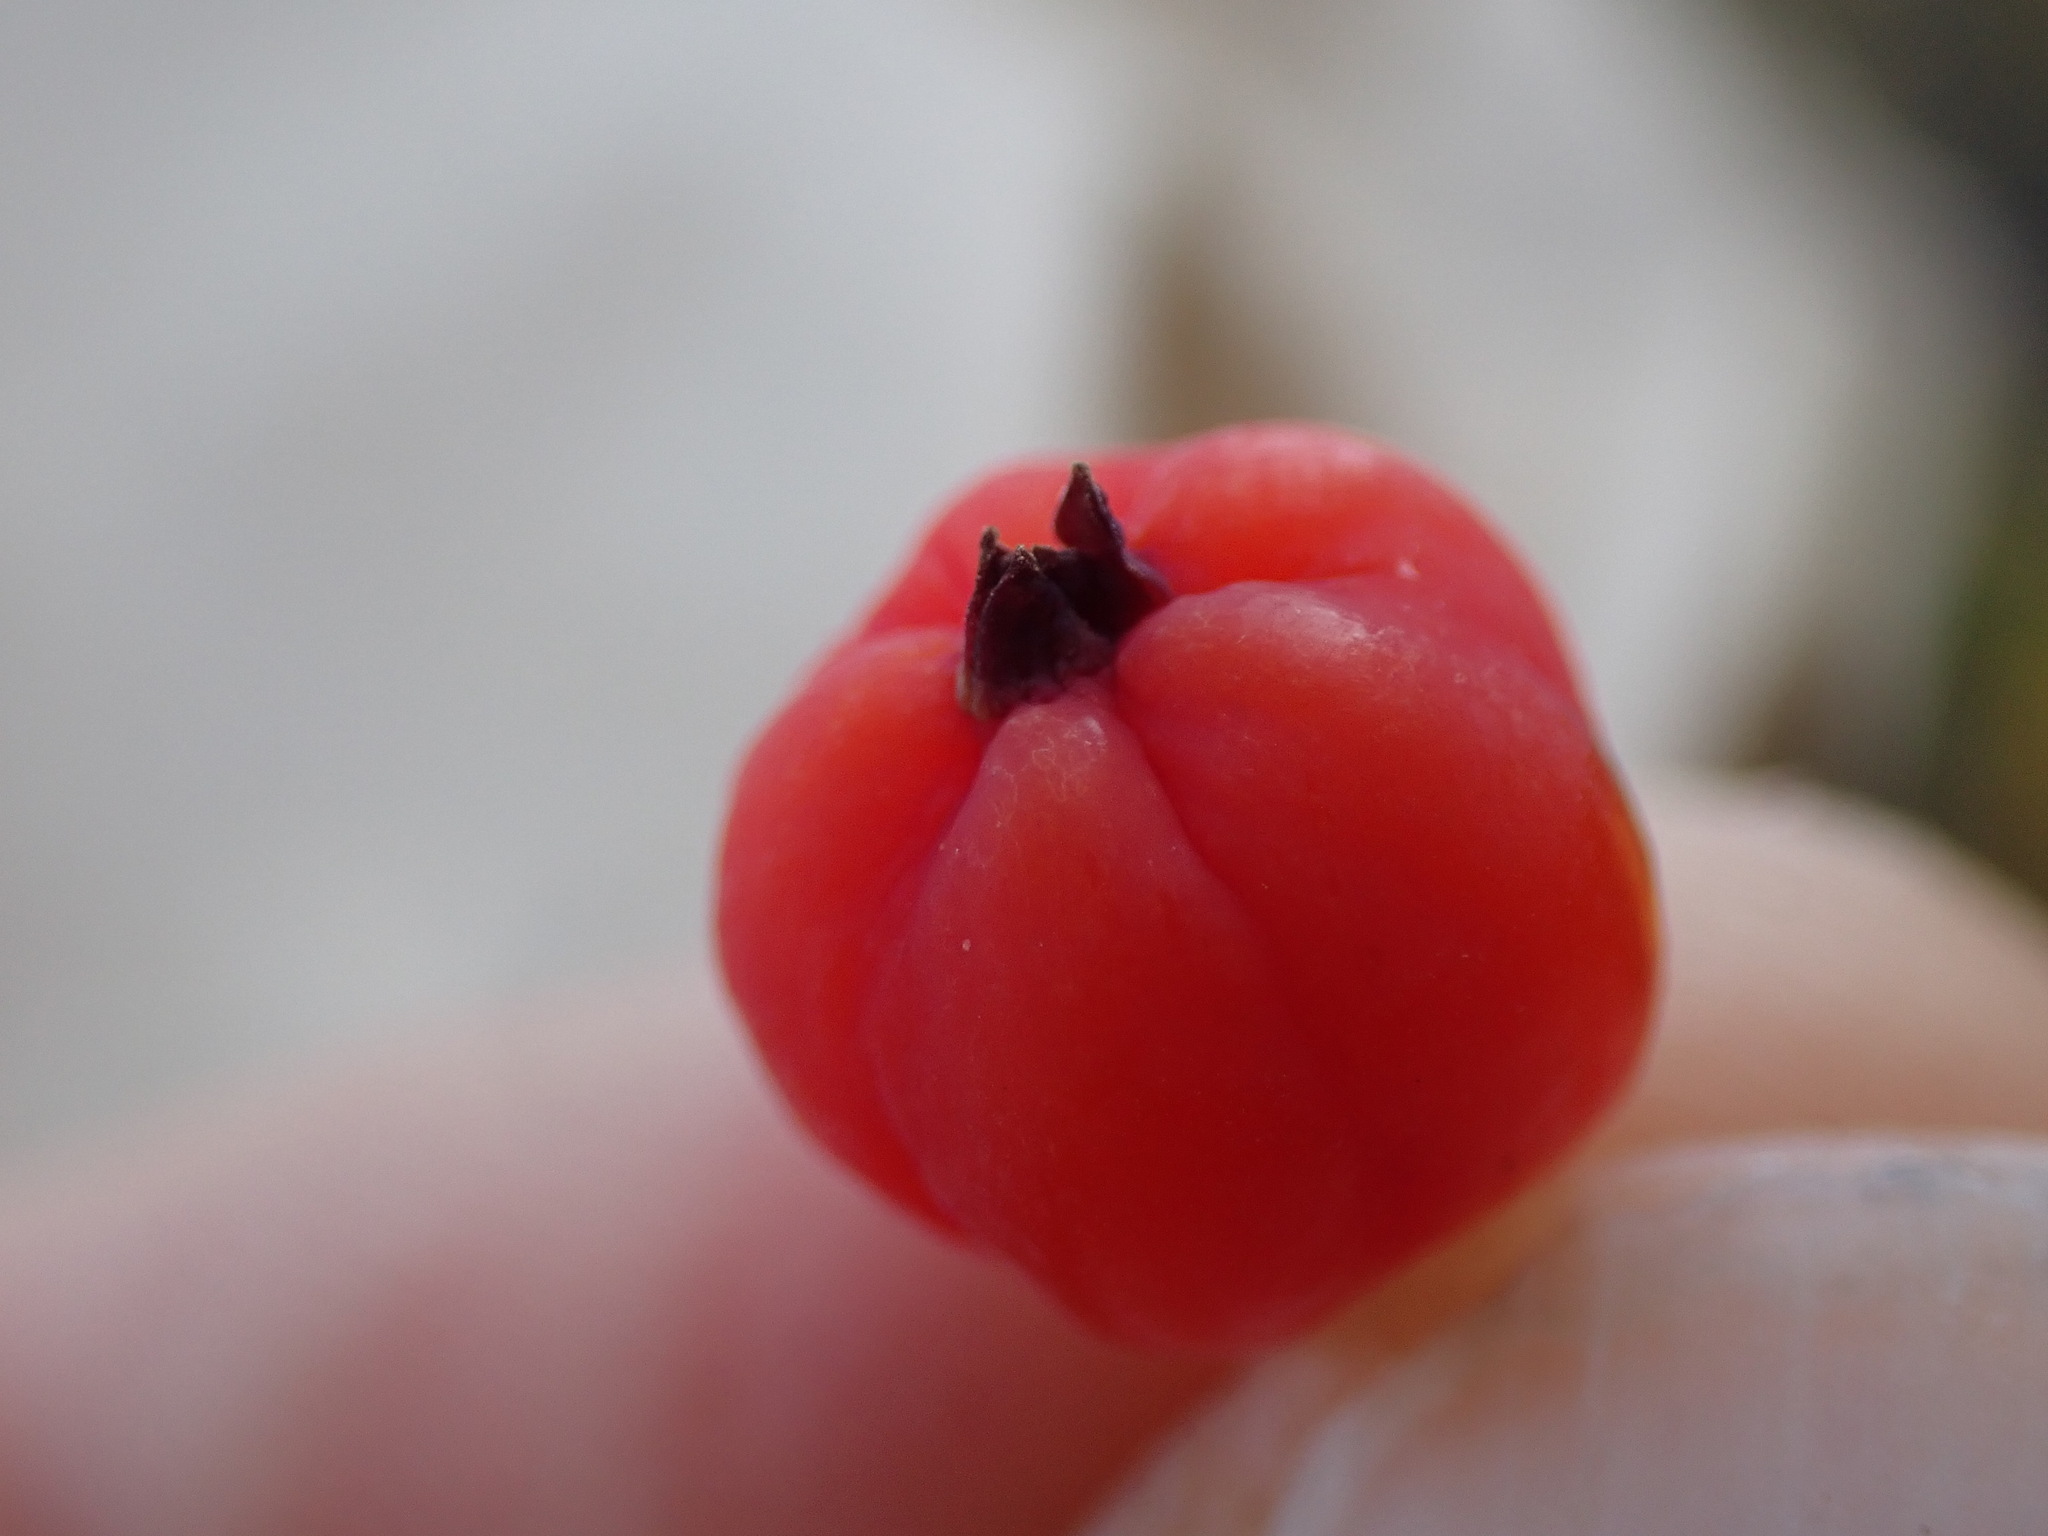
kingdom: Plantae
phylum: Tracheophyta
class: Magnoliopsida
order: Santalales
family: Comandraceae
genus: Geocaulon
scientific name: Geocaulon lividum
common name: Earthberry
